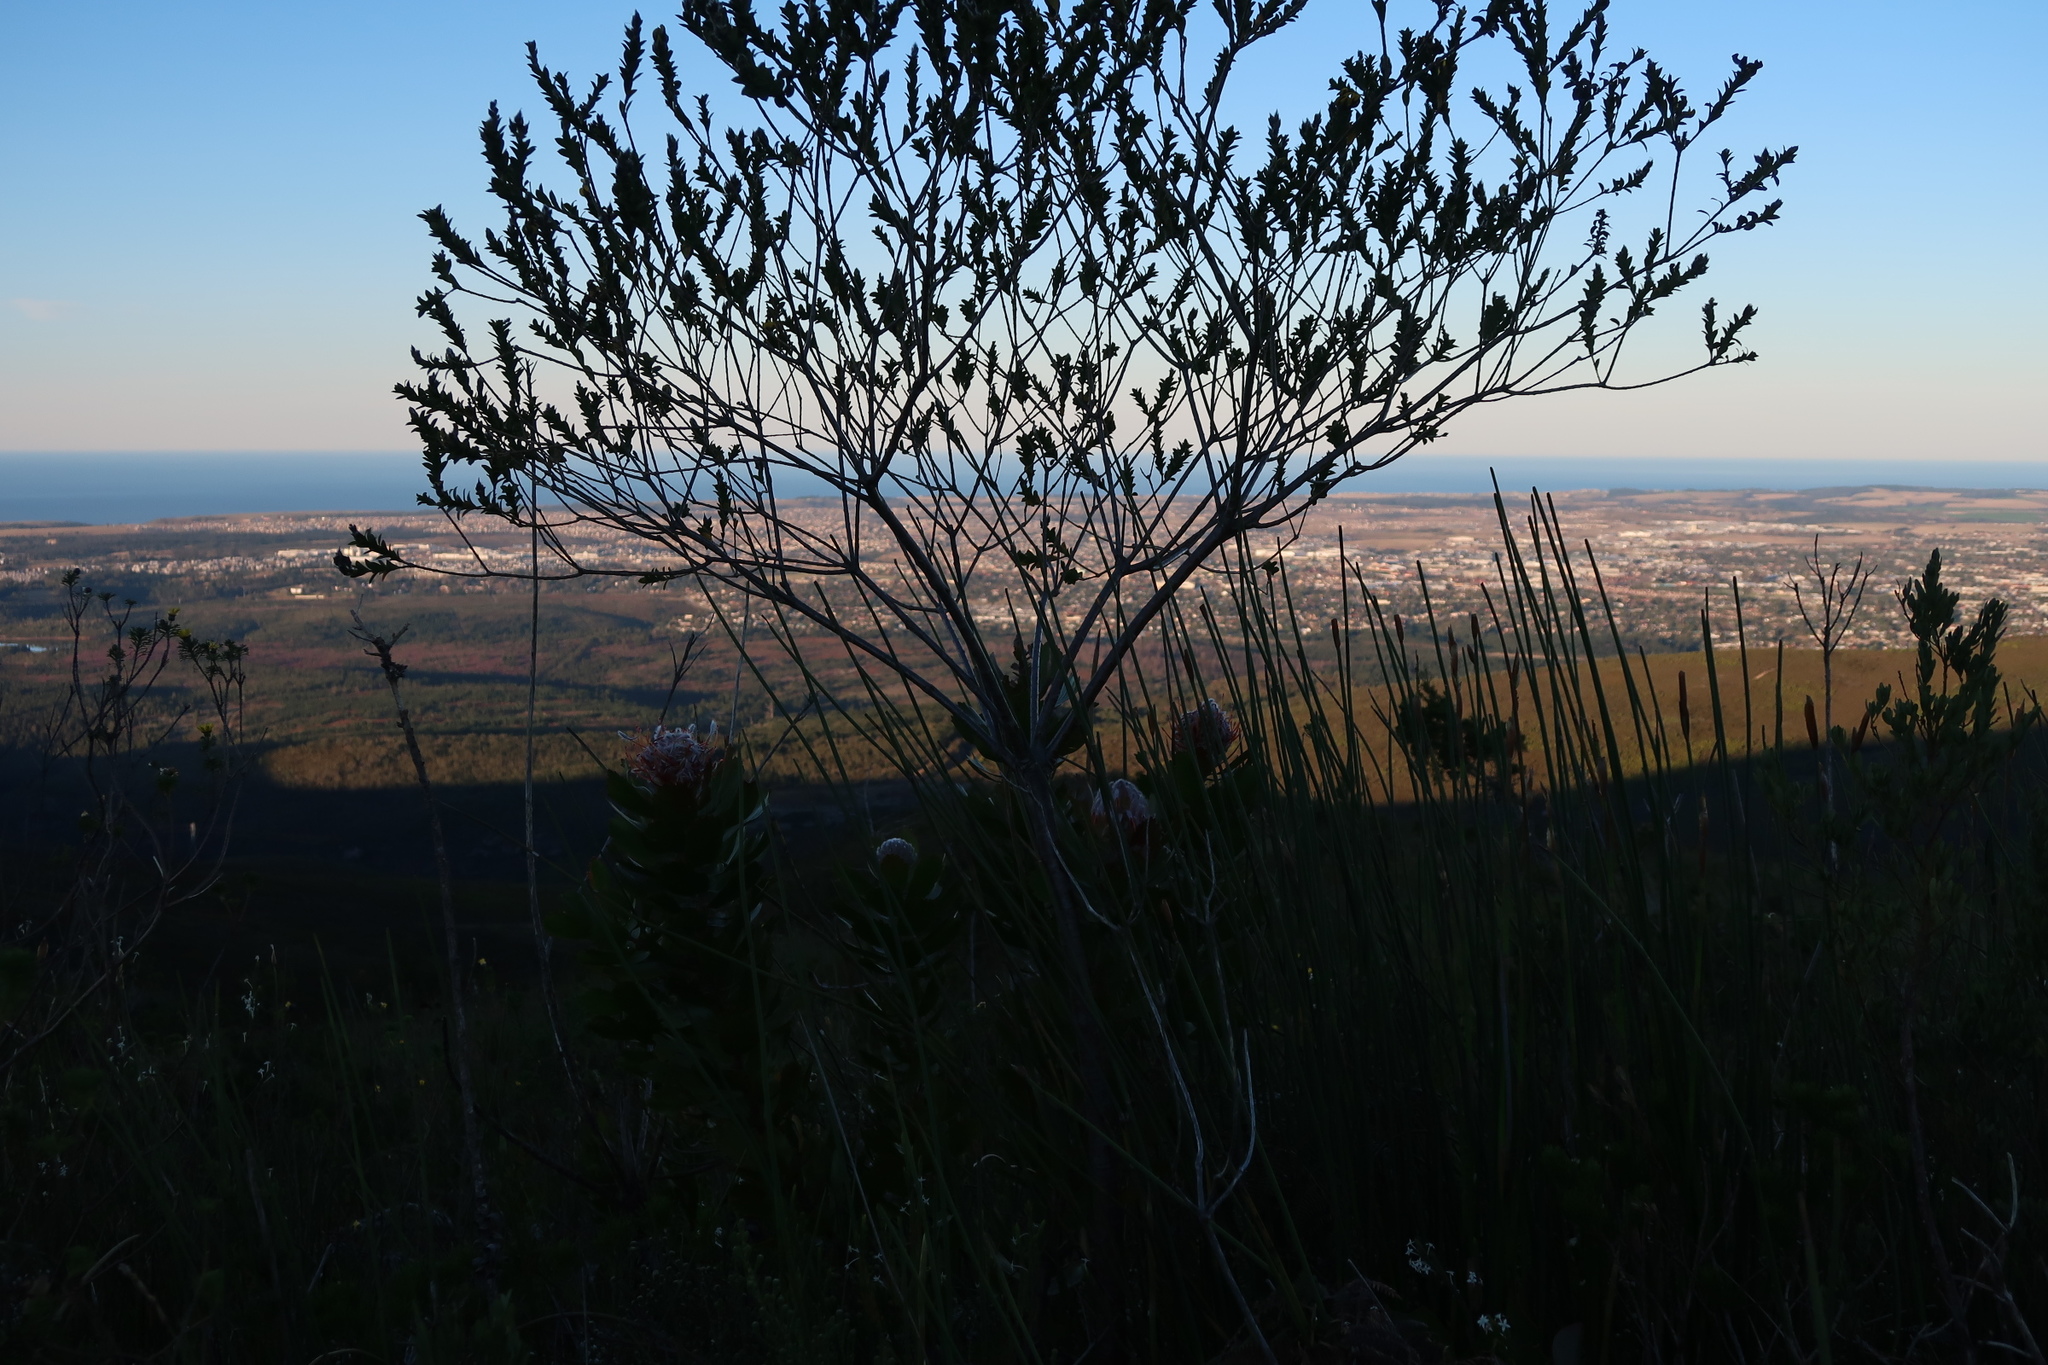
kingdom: Plantae
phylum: Tracheophyta
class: Magnoliopsida
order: Fabales
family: Fabaceae
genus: Liparia
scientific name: Liparia hirsuta
